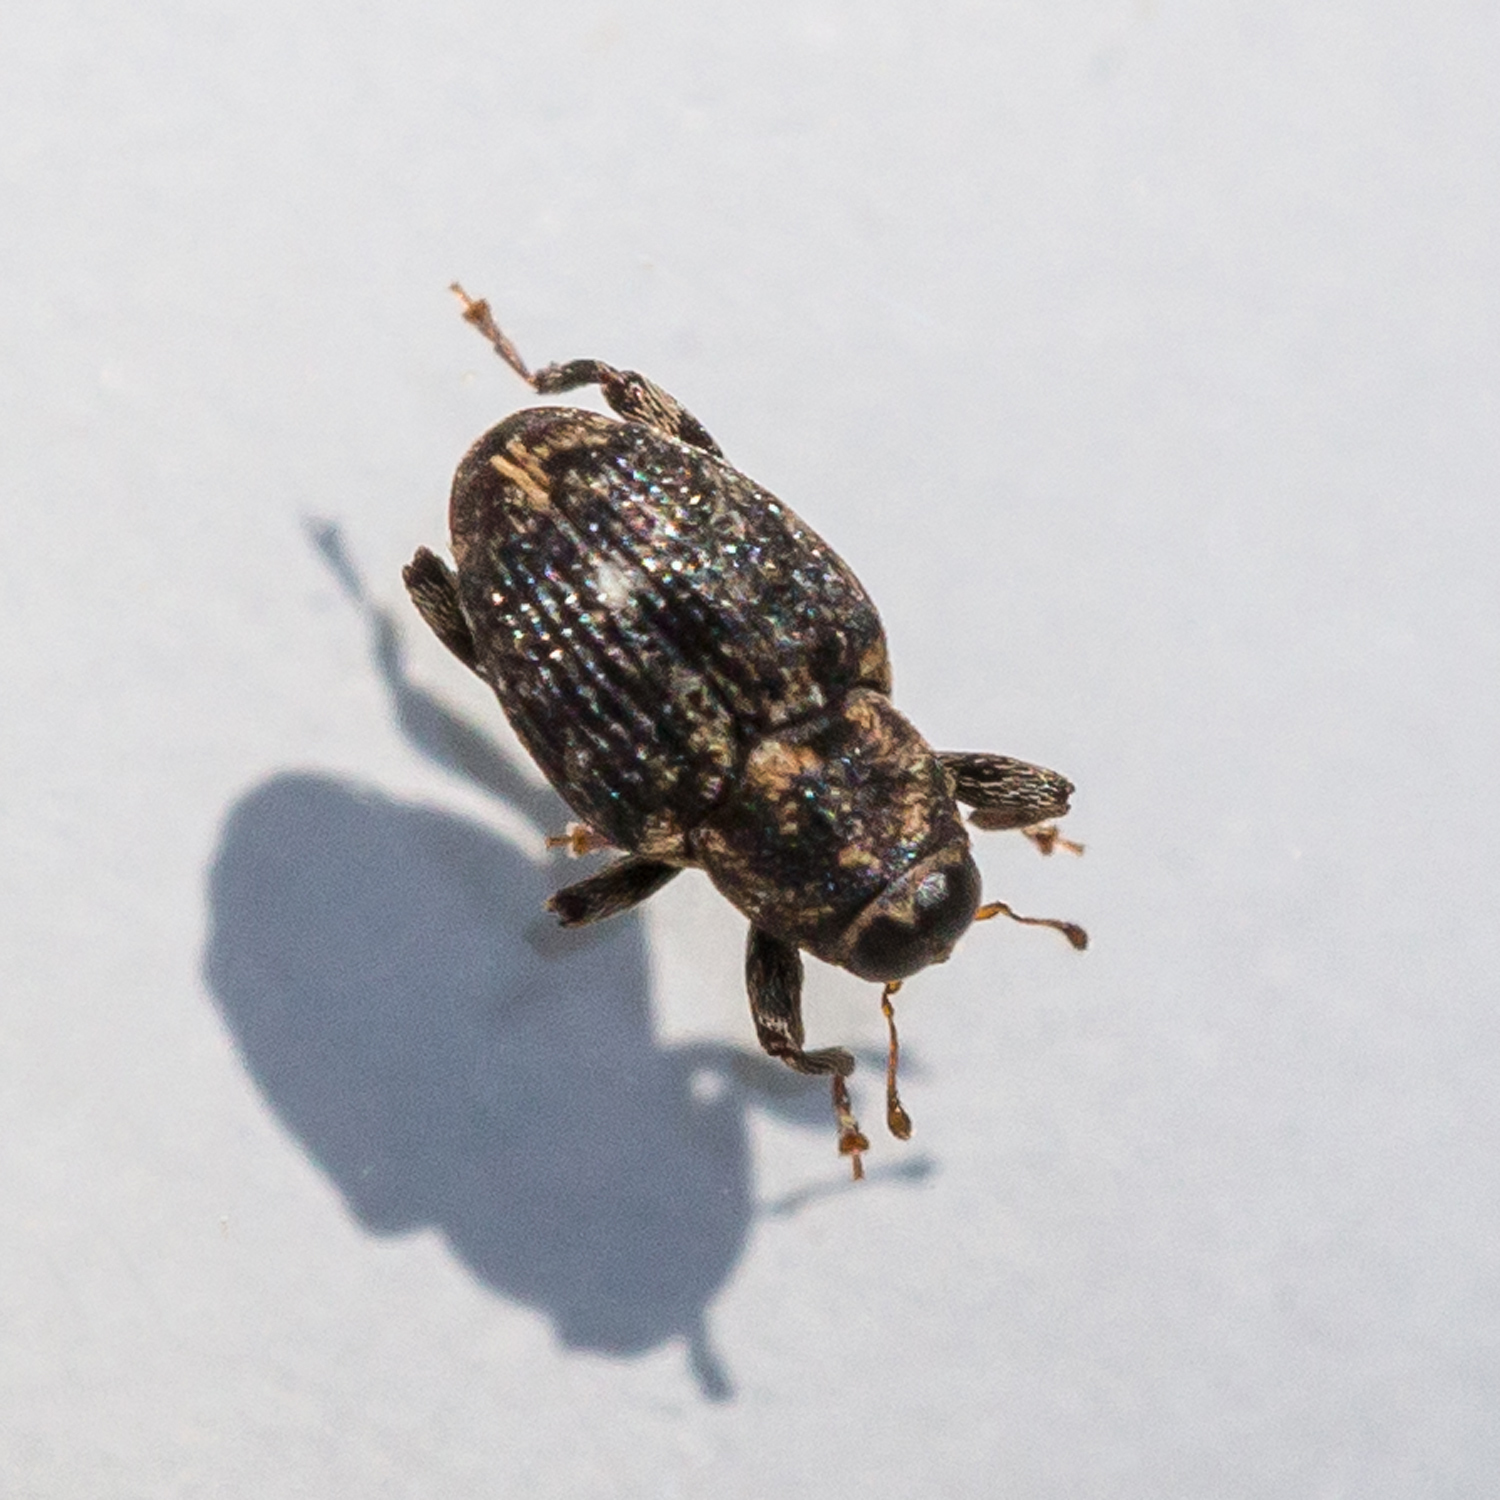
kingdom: Animalia
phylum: Arthropoda
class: Insecta
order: Coleoptera
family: Curculionidae
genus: Lechriops
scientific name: Lechriops oculatus
